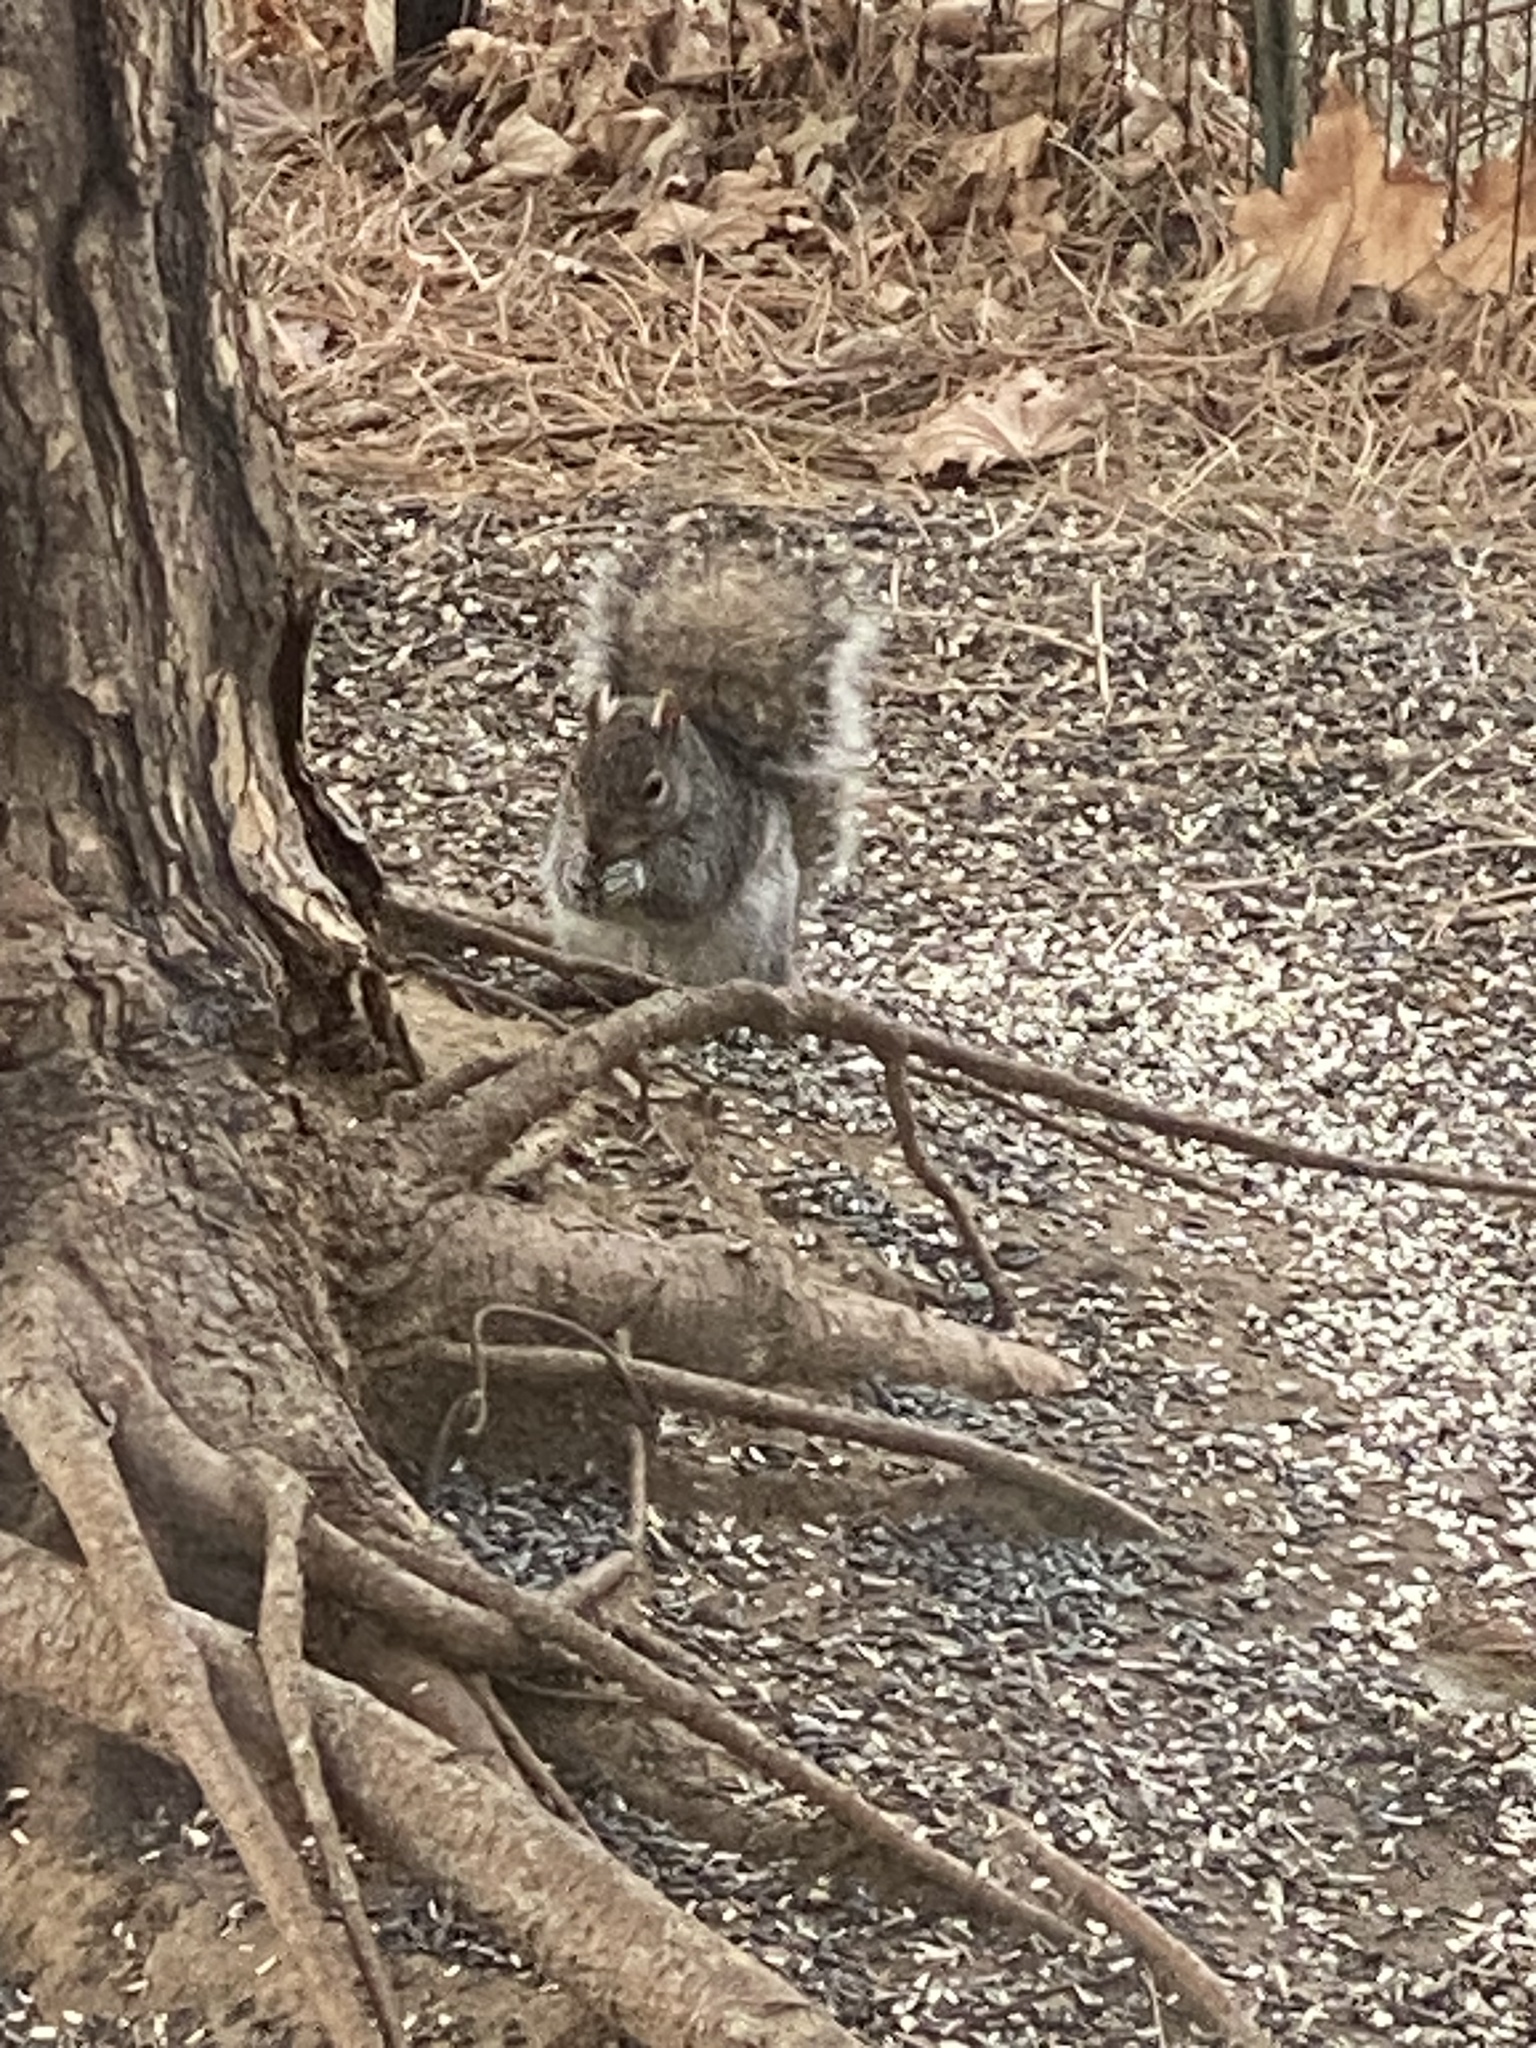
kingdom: Animalia
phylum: Chordata
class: Mammalia
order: Rodentia
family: Sciuridae
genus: Sciurus
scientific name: Sciurus carolinensis
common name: Eastern gray squirrel
